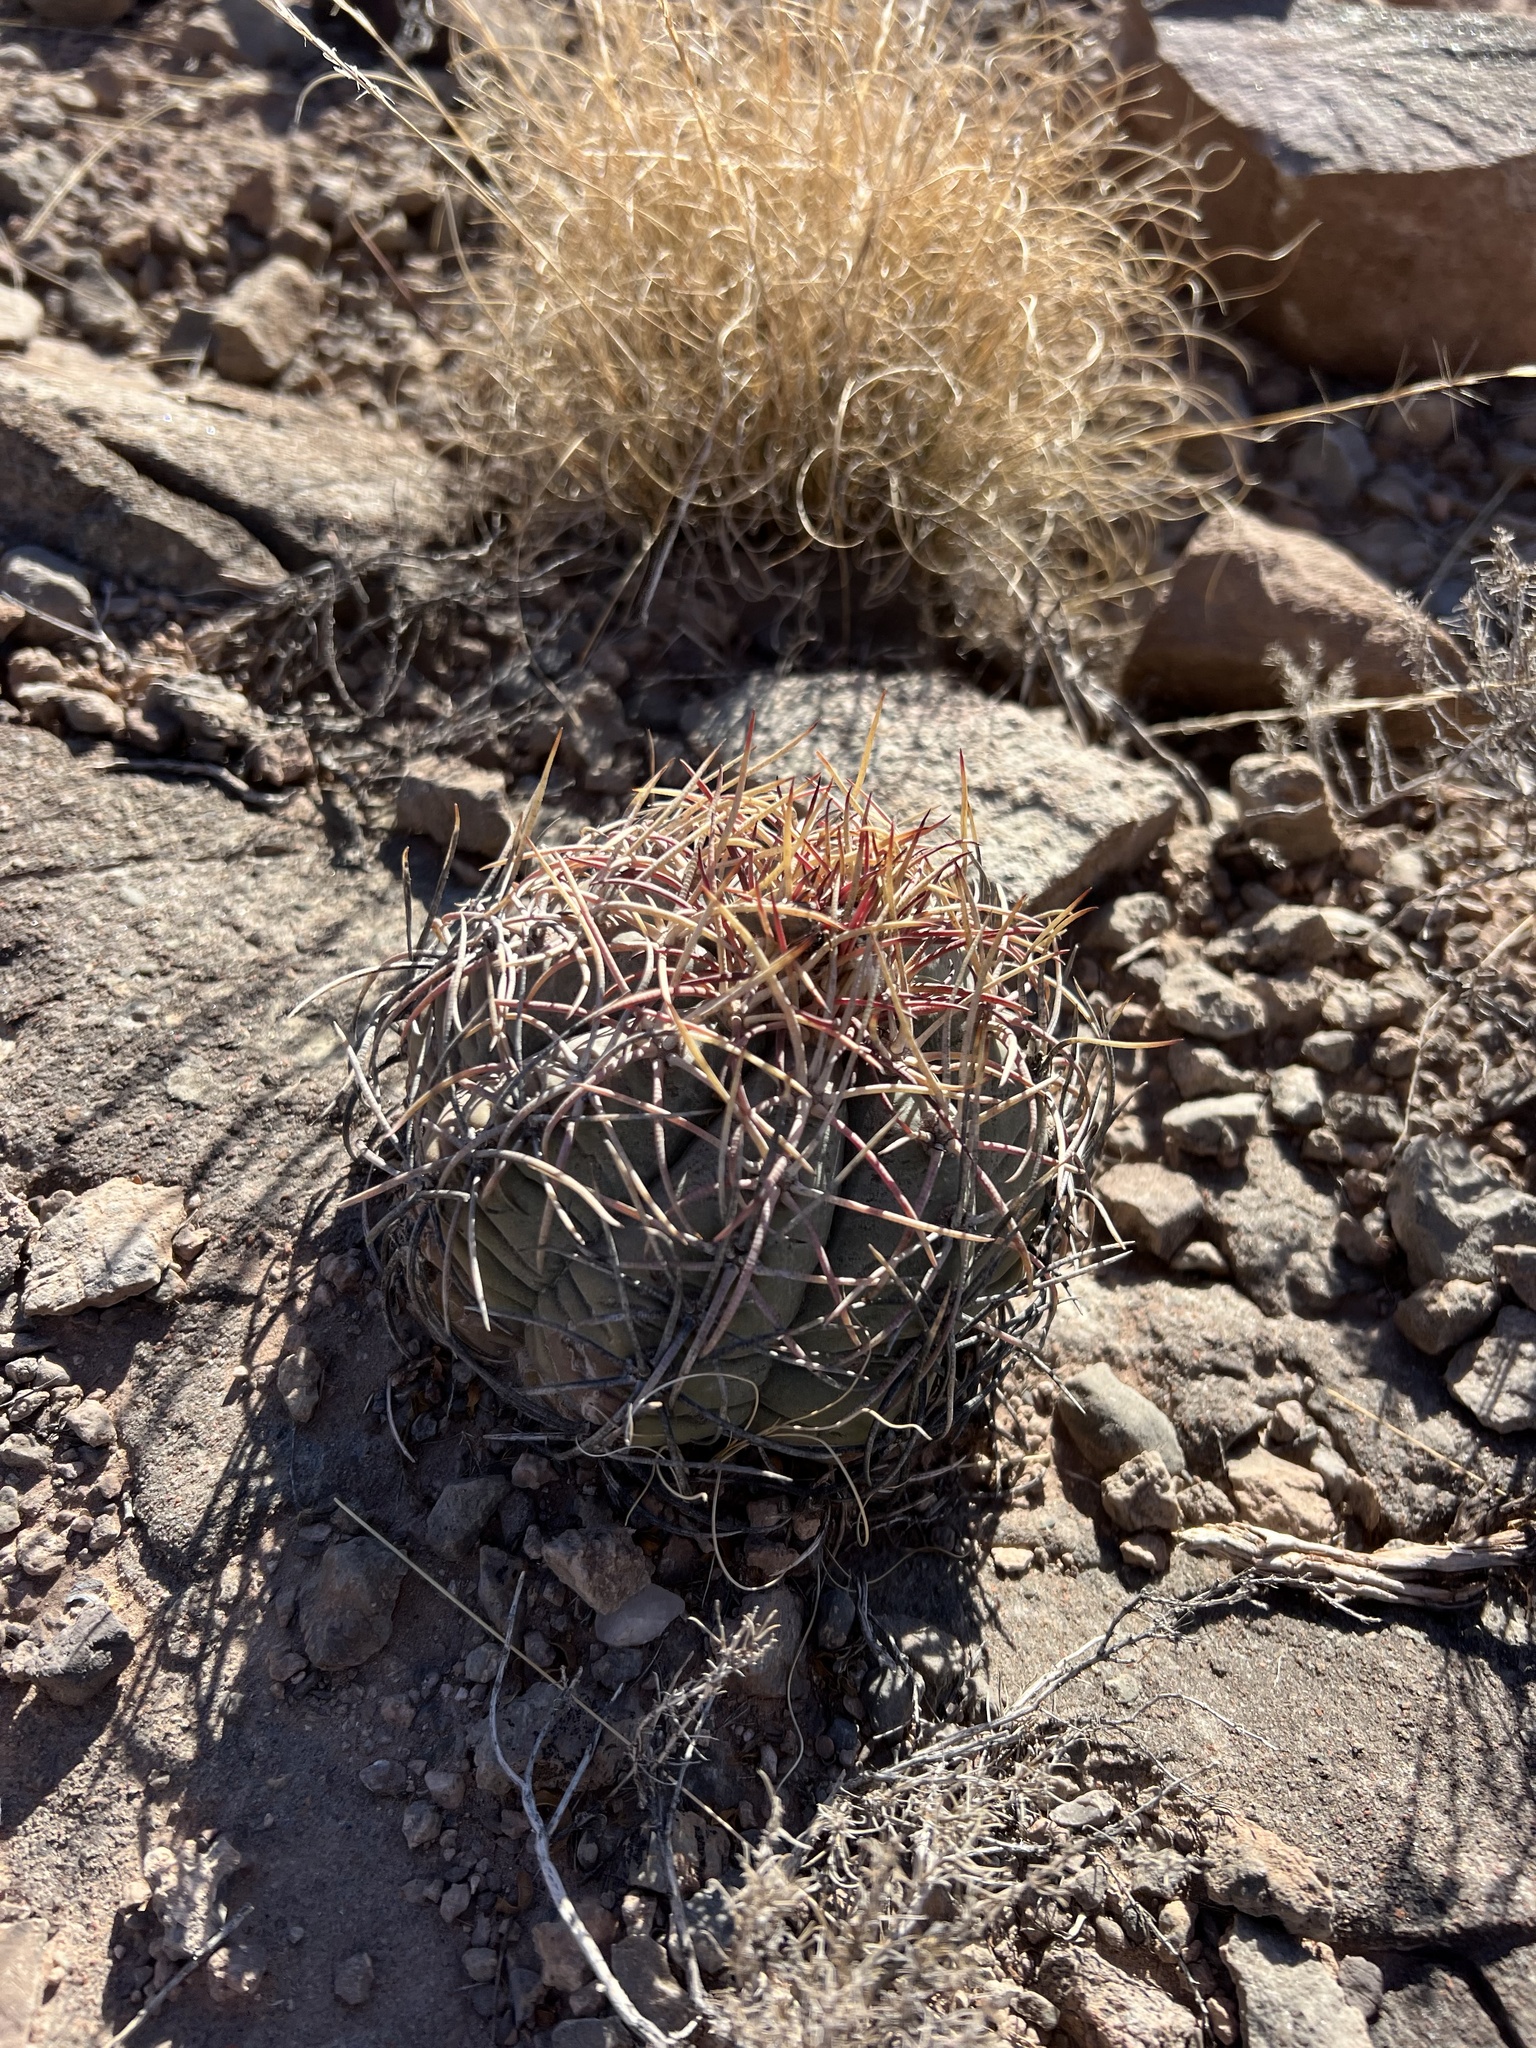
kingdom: Plantae
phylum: Tracheophyta
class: Magnoliopsida
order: Caryophyllales
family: Cactaceae
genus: Echinocactus
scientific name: Echinocactus horizonthalonius
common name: Devilshead
